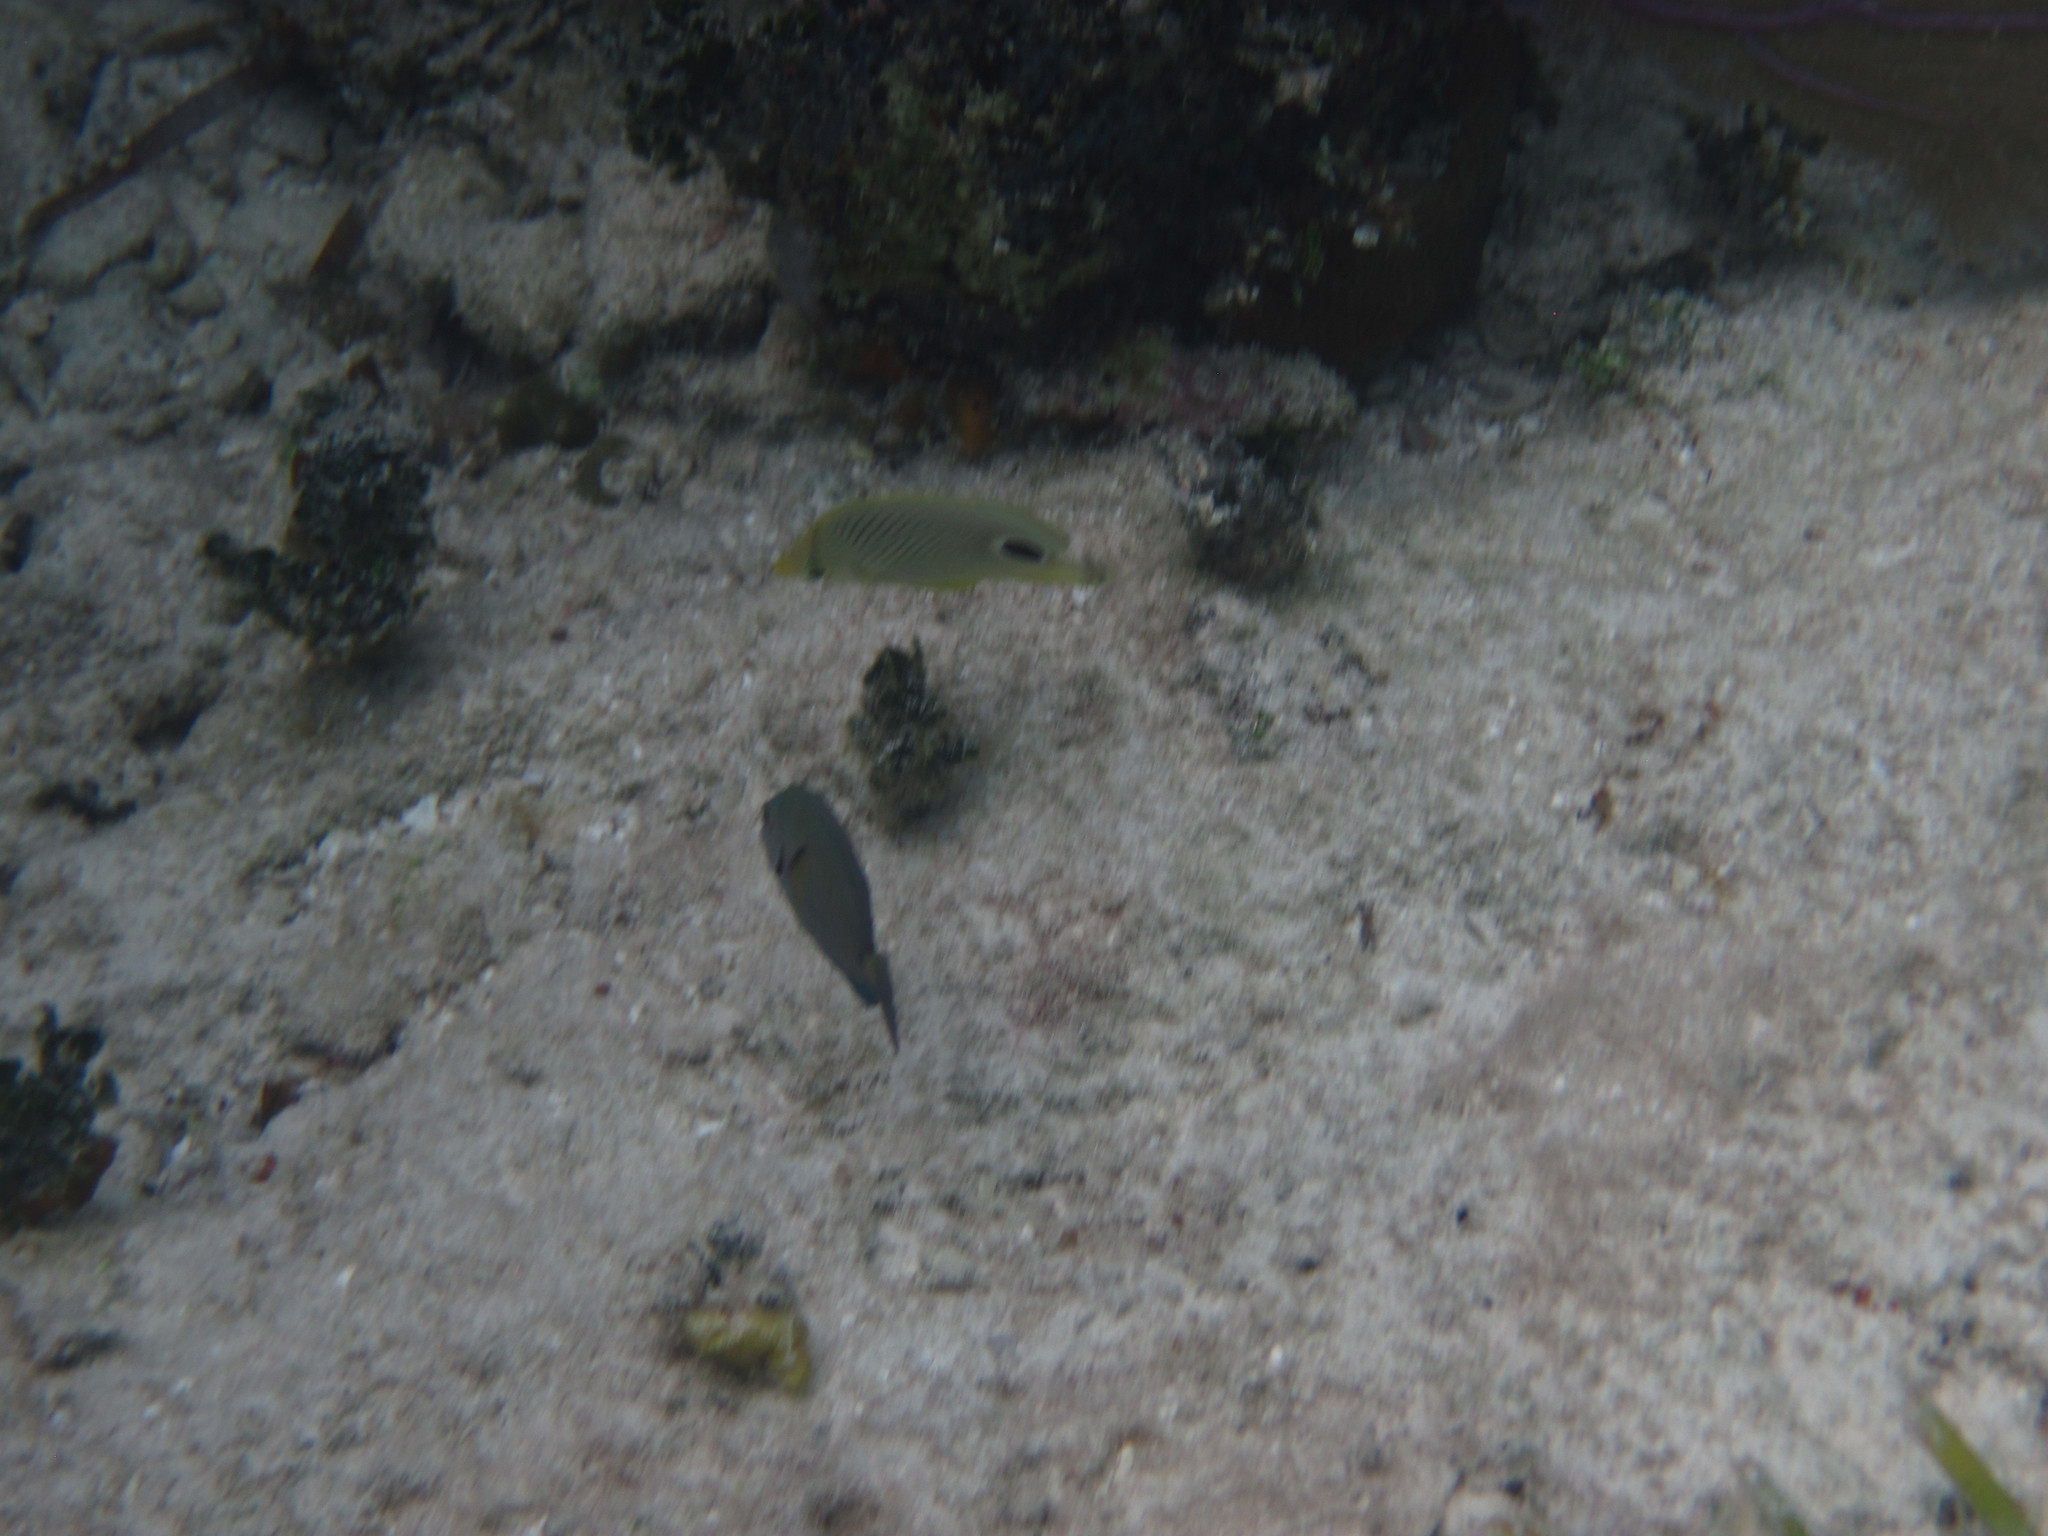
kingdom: Animalia
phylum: Chordata
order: Perciformes
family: Chaetodontidae
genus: Chaetodon
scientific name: Chaetodon capistratus
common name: Kete
